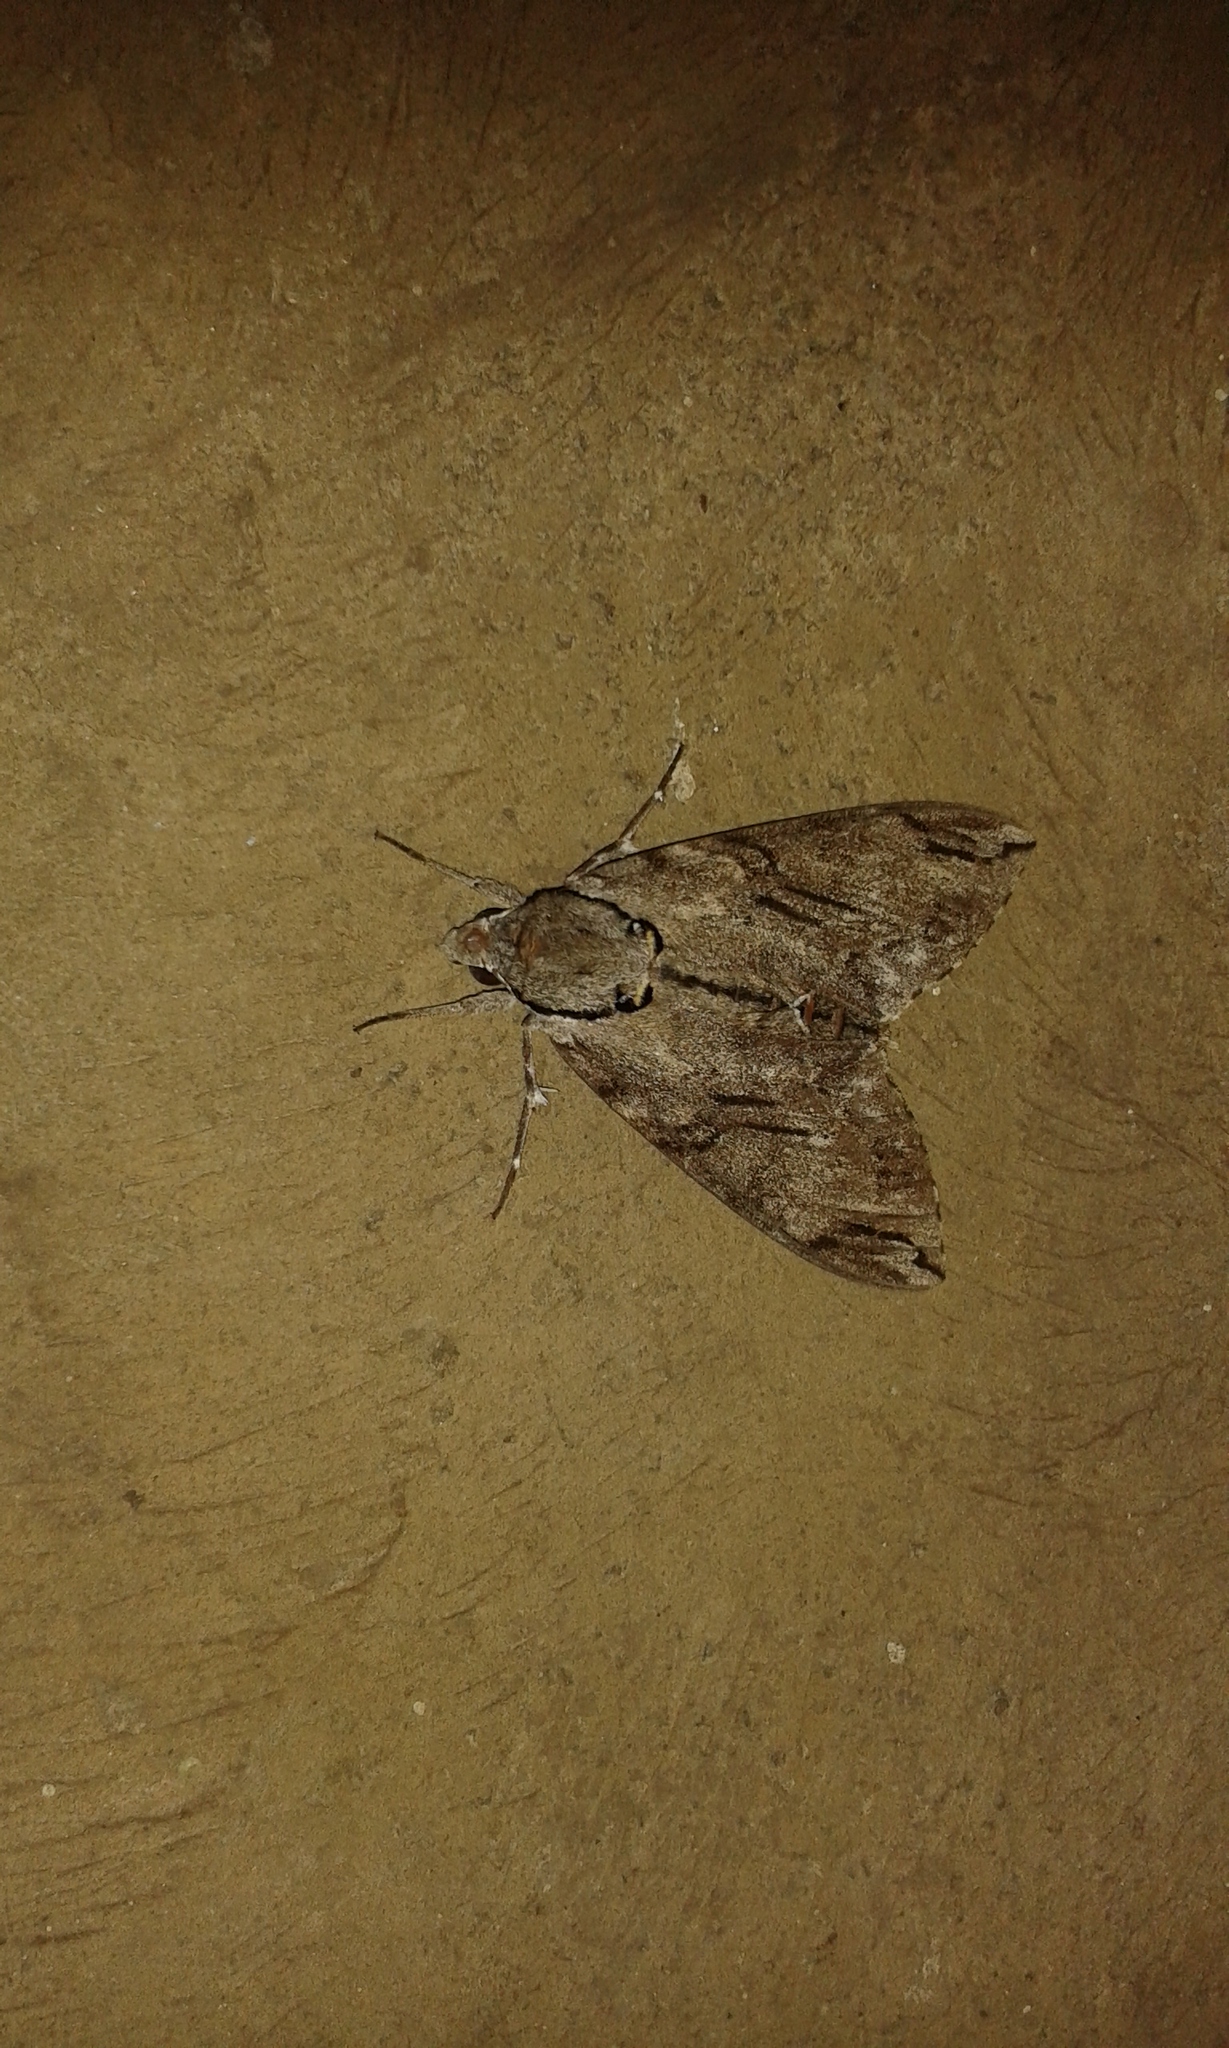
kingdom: Animalia
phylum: Arthropoda
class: Insecta
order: Lepidoptera
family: Sphingidae
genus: Psilogramma
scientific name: Psilogramma increta
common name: Gray hawk moth
